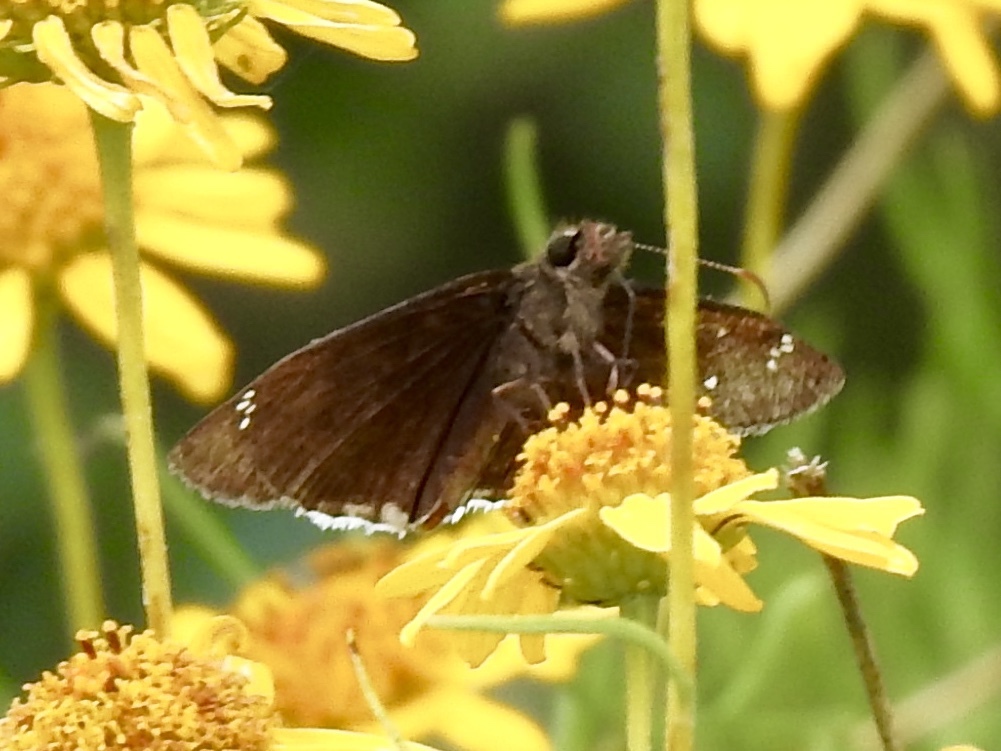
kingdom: Animalia
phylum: Arthropoda
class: Insecta
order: Lepidoptera
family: Hesperiidae
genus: Erynnis
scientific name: Erynnis funeralis
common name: Funereal duskywing
